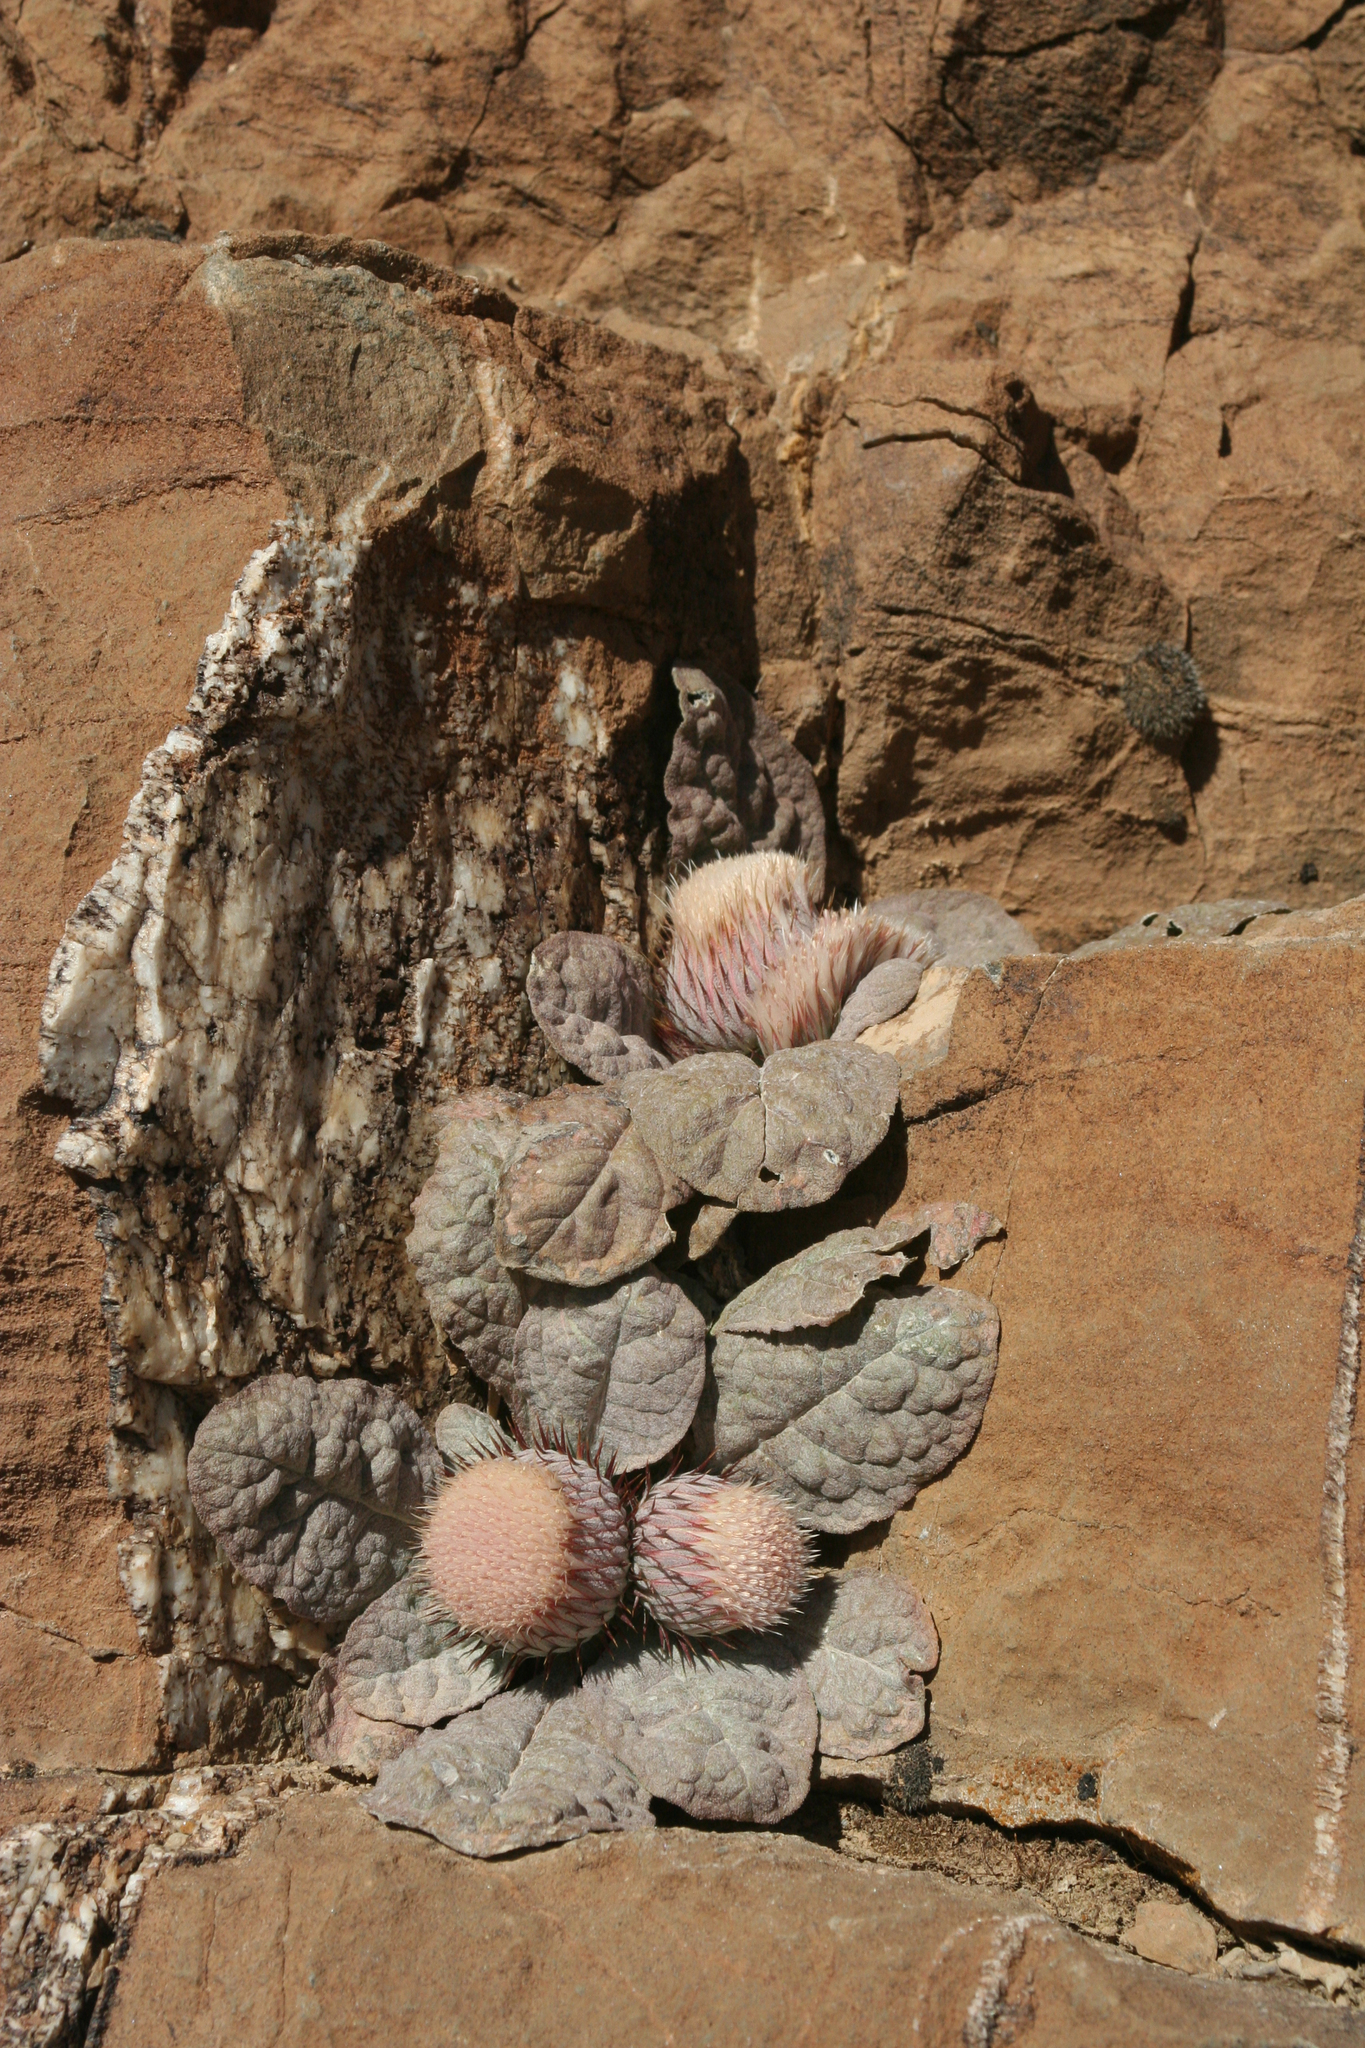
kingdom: Plantae
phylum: Tracheophyta
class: Magnoliopsida
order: Asterales
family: Asteraceae
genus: Jurinea
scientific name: Jurinea berardioides
